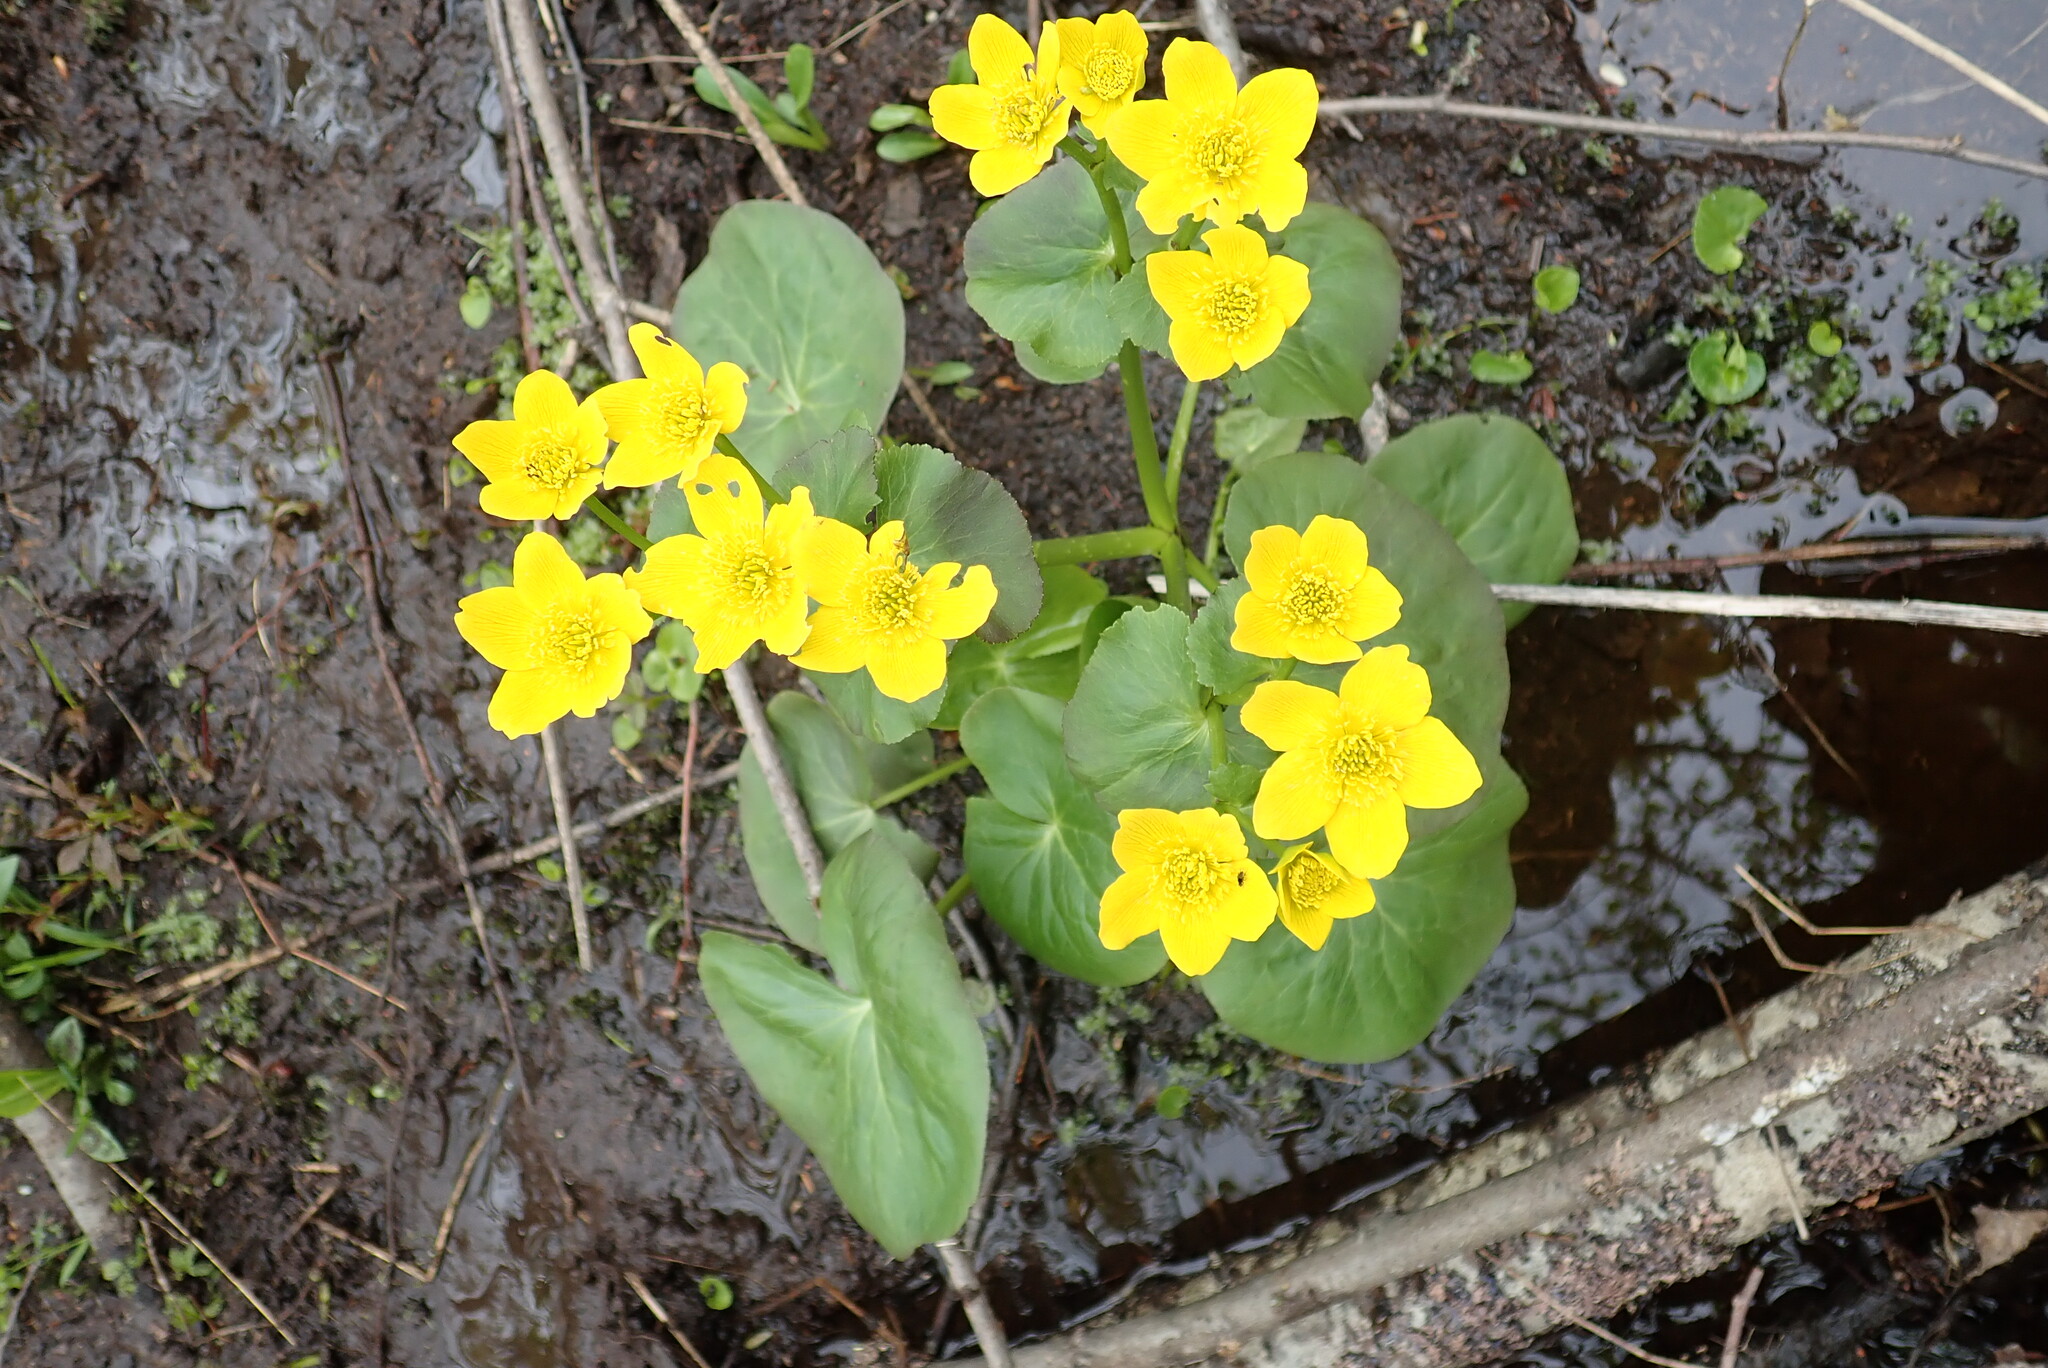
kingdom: Plantae
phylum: Tracheophyta
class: Magnoliopsida
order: Ranunculales
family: Ranunculaceae
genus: Caltha
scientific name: Caltha palustris
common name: Marsh marigold
